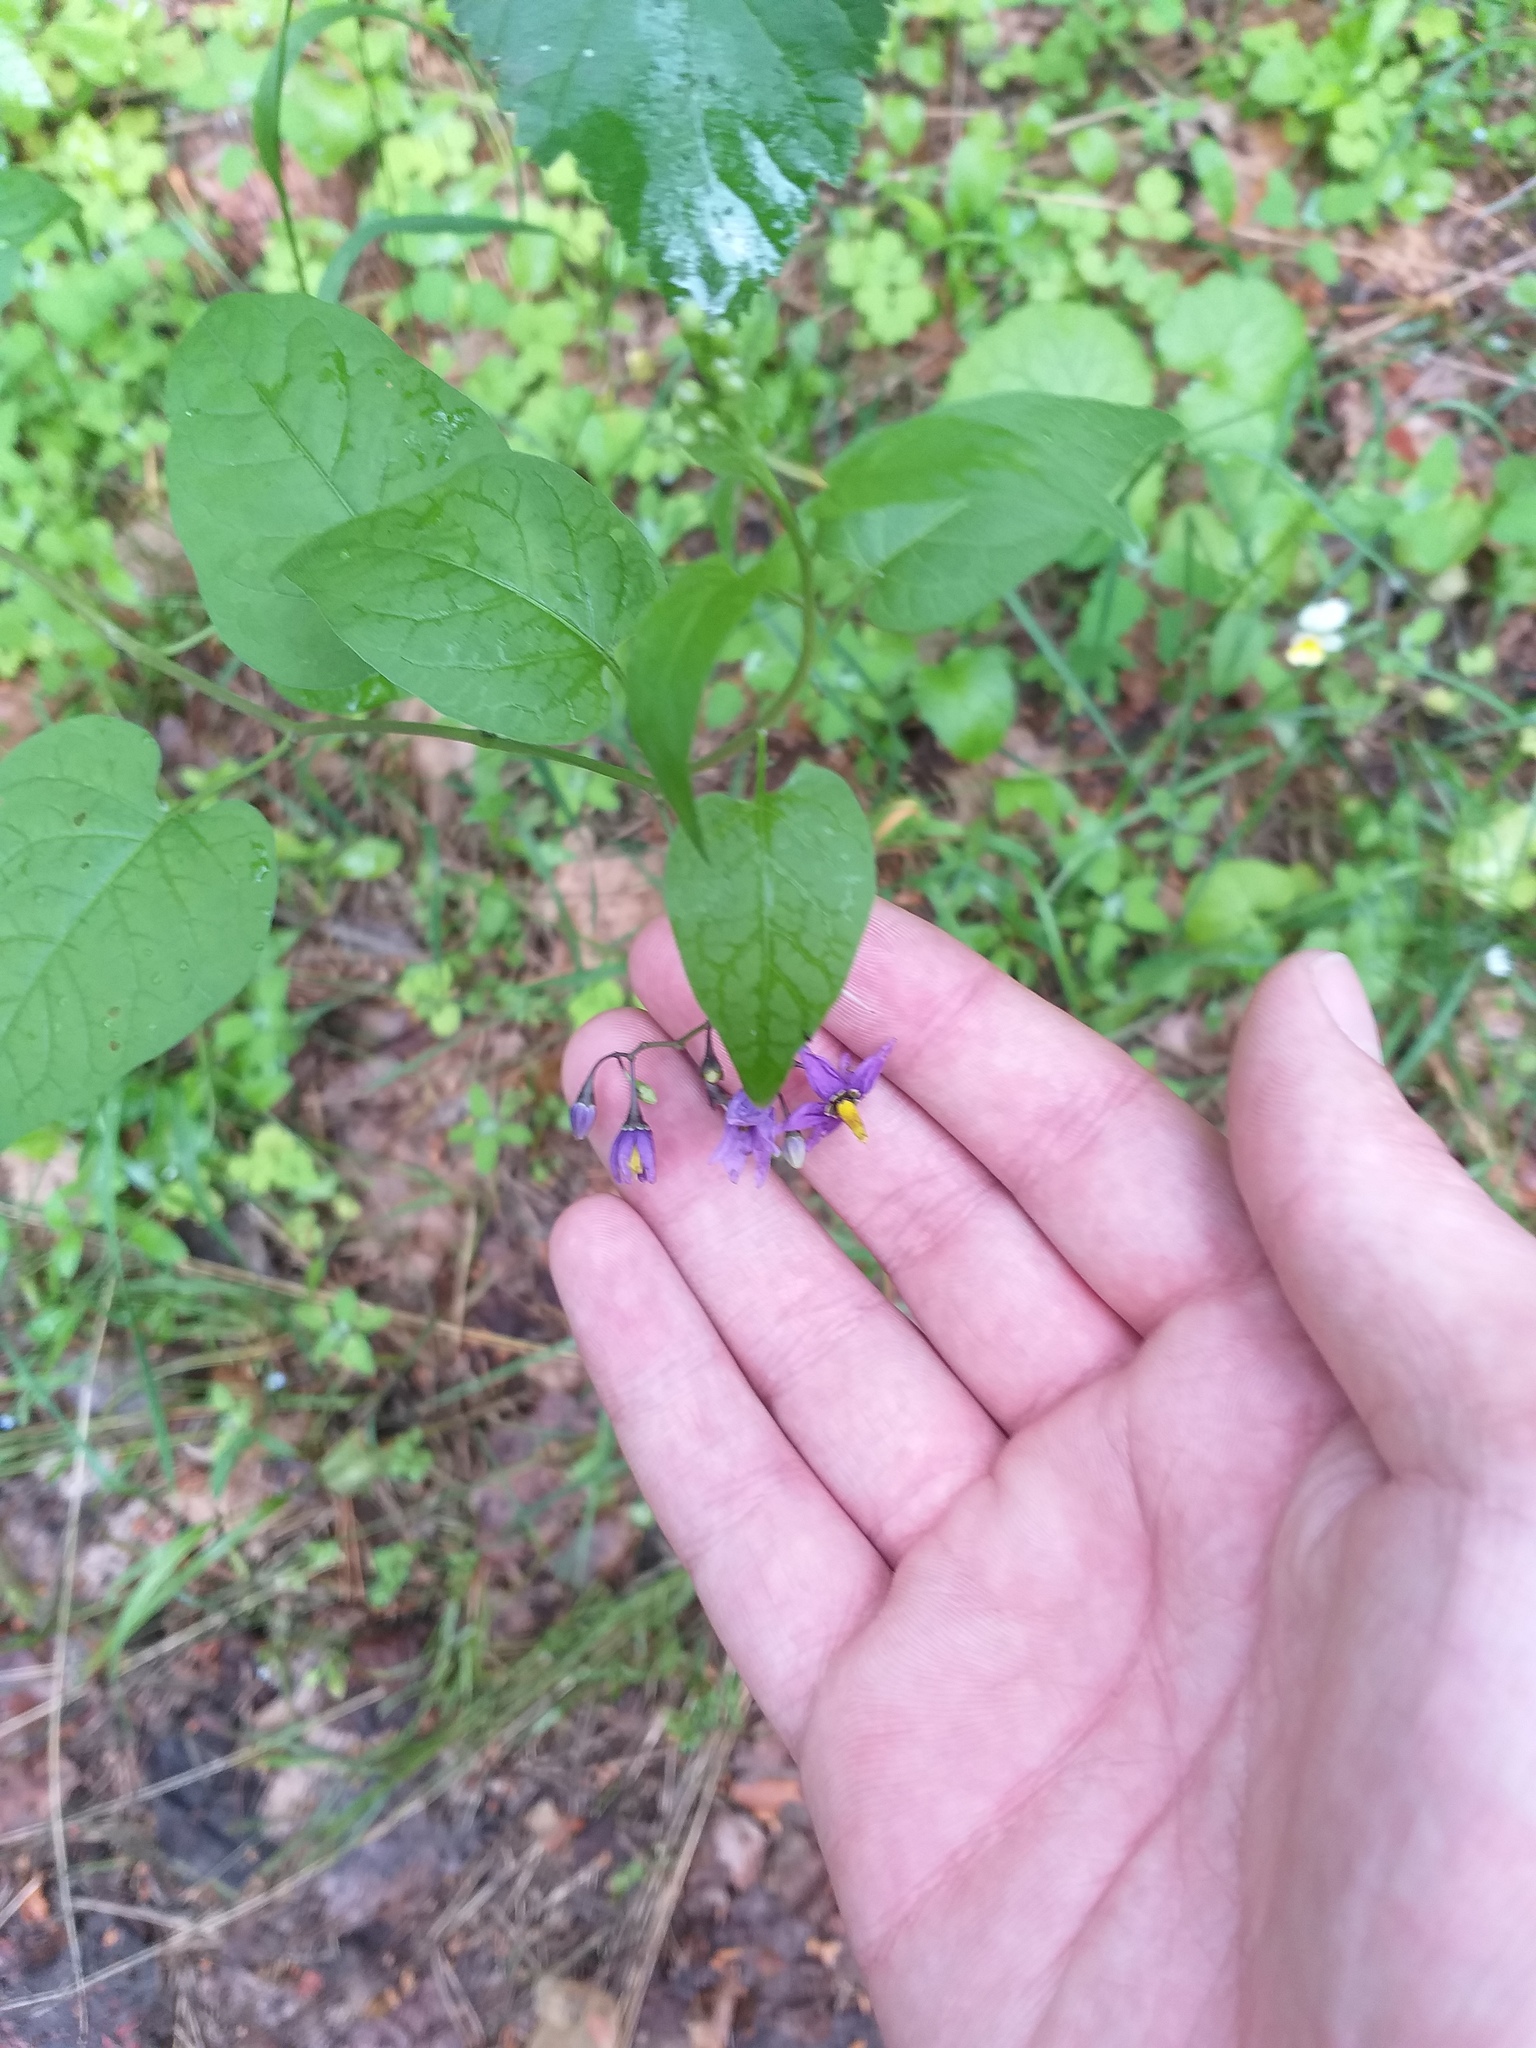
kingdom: Plantae
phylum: Tracheophyta
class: Magnoliopsida
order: Solanales
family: Solanaceae
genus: Solanum
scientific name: Solanum dulcamara
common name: Climbing nightshade
